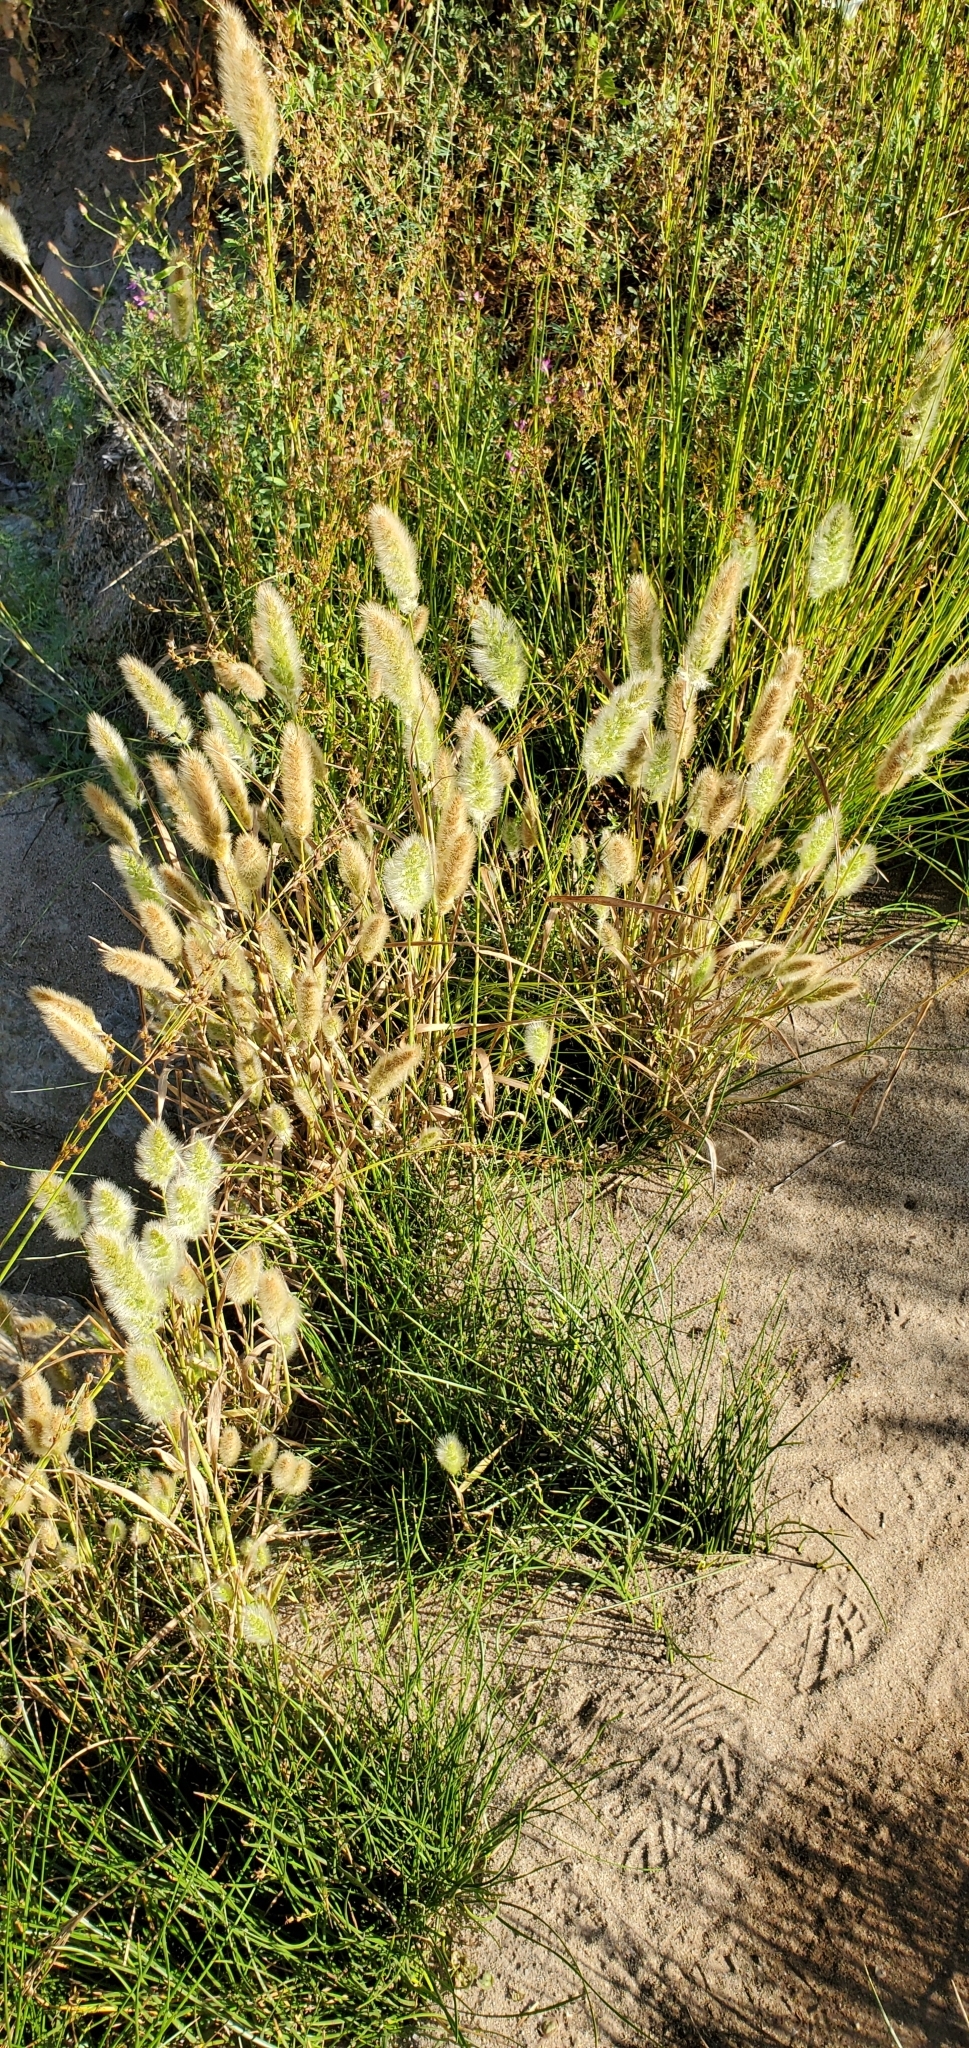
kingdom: Plantae
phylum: Tracheophyta
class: Liliopsida
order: Poales
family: Poaceae
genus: Polypogon
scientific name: Polypogon monspeliensis
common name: Annual rabbitsfoot grass
